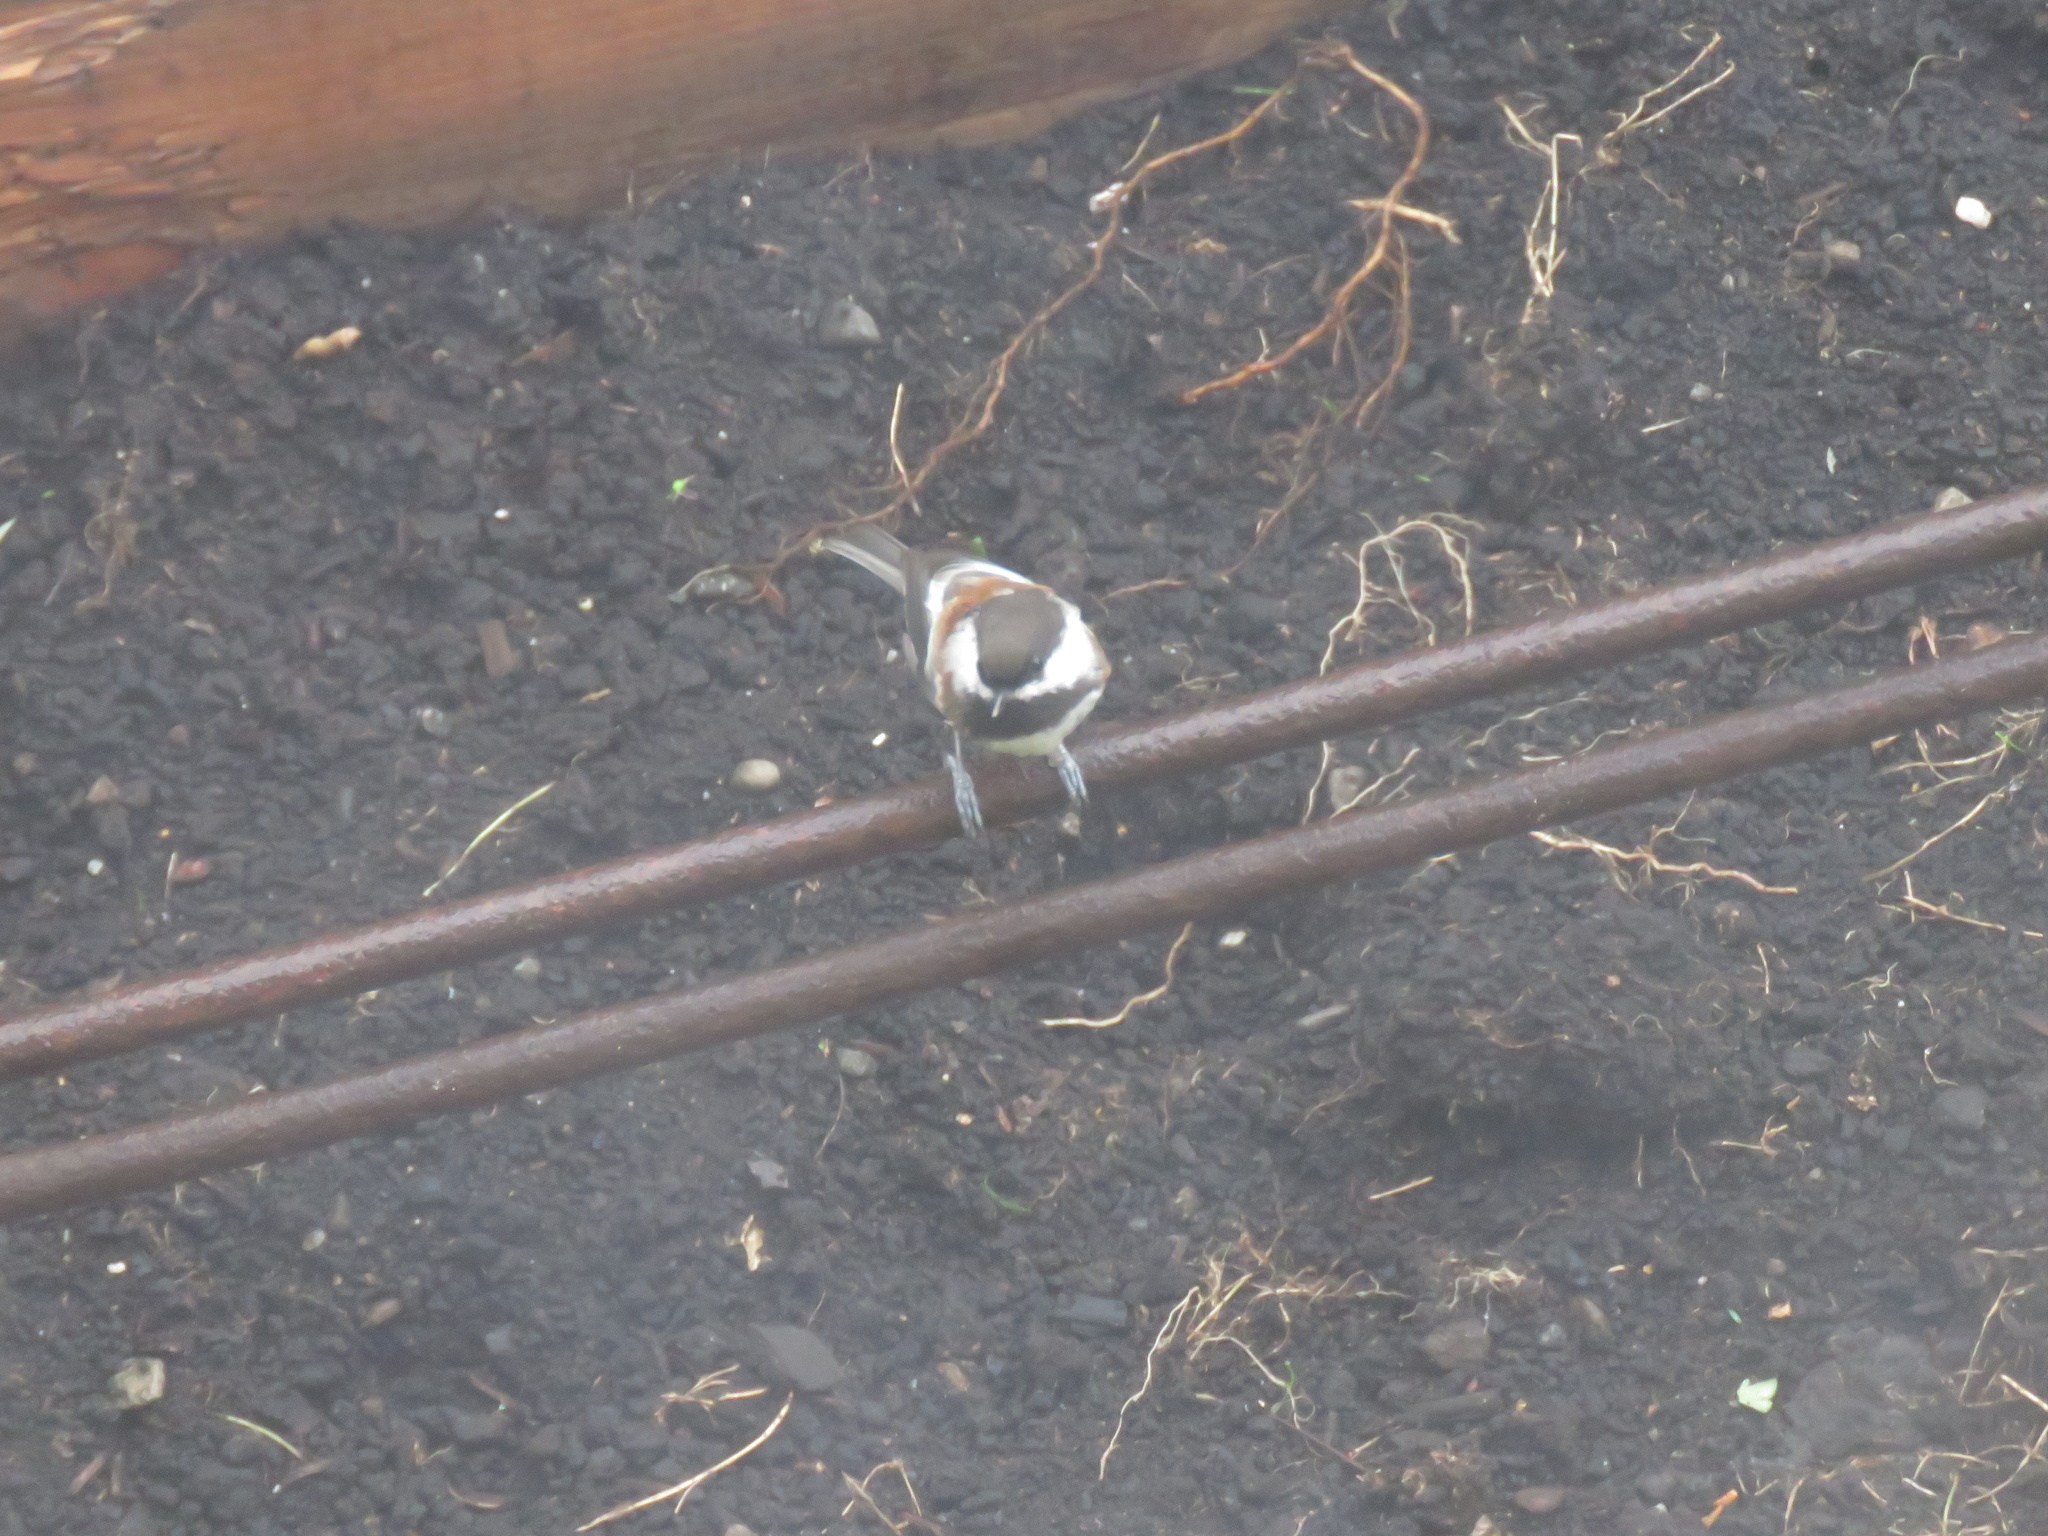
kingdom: Animalia
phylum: Chordata
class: Aves
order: Passeriformes
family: Paridae
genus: Poecile
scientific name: Poecile rufescens
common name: Chestnut-backed chickadee
